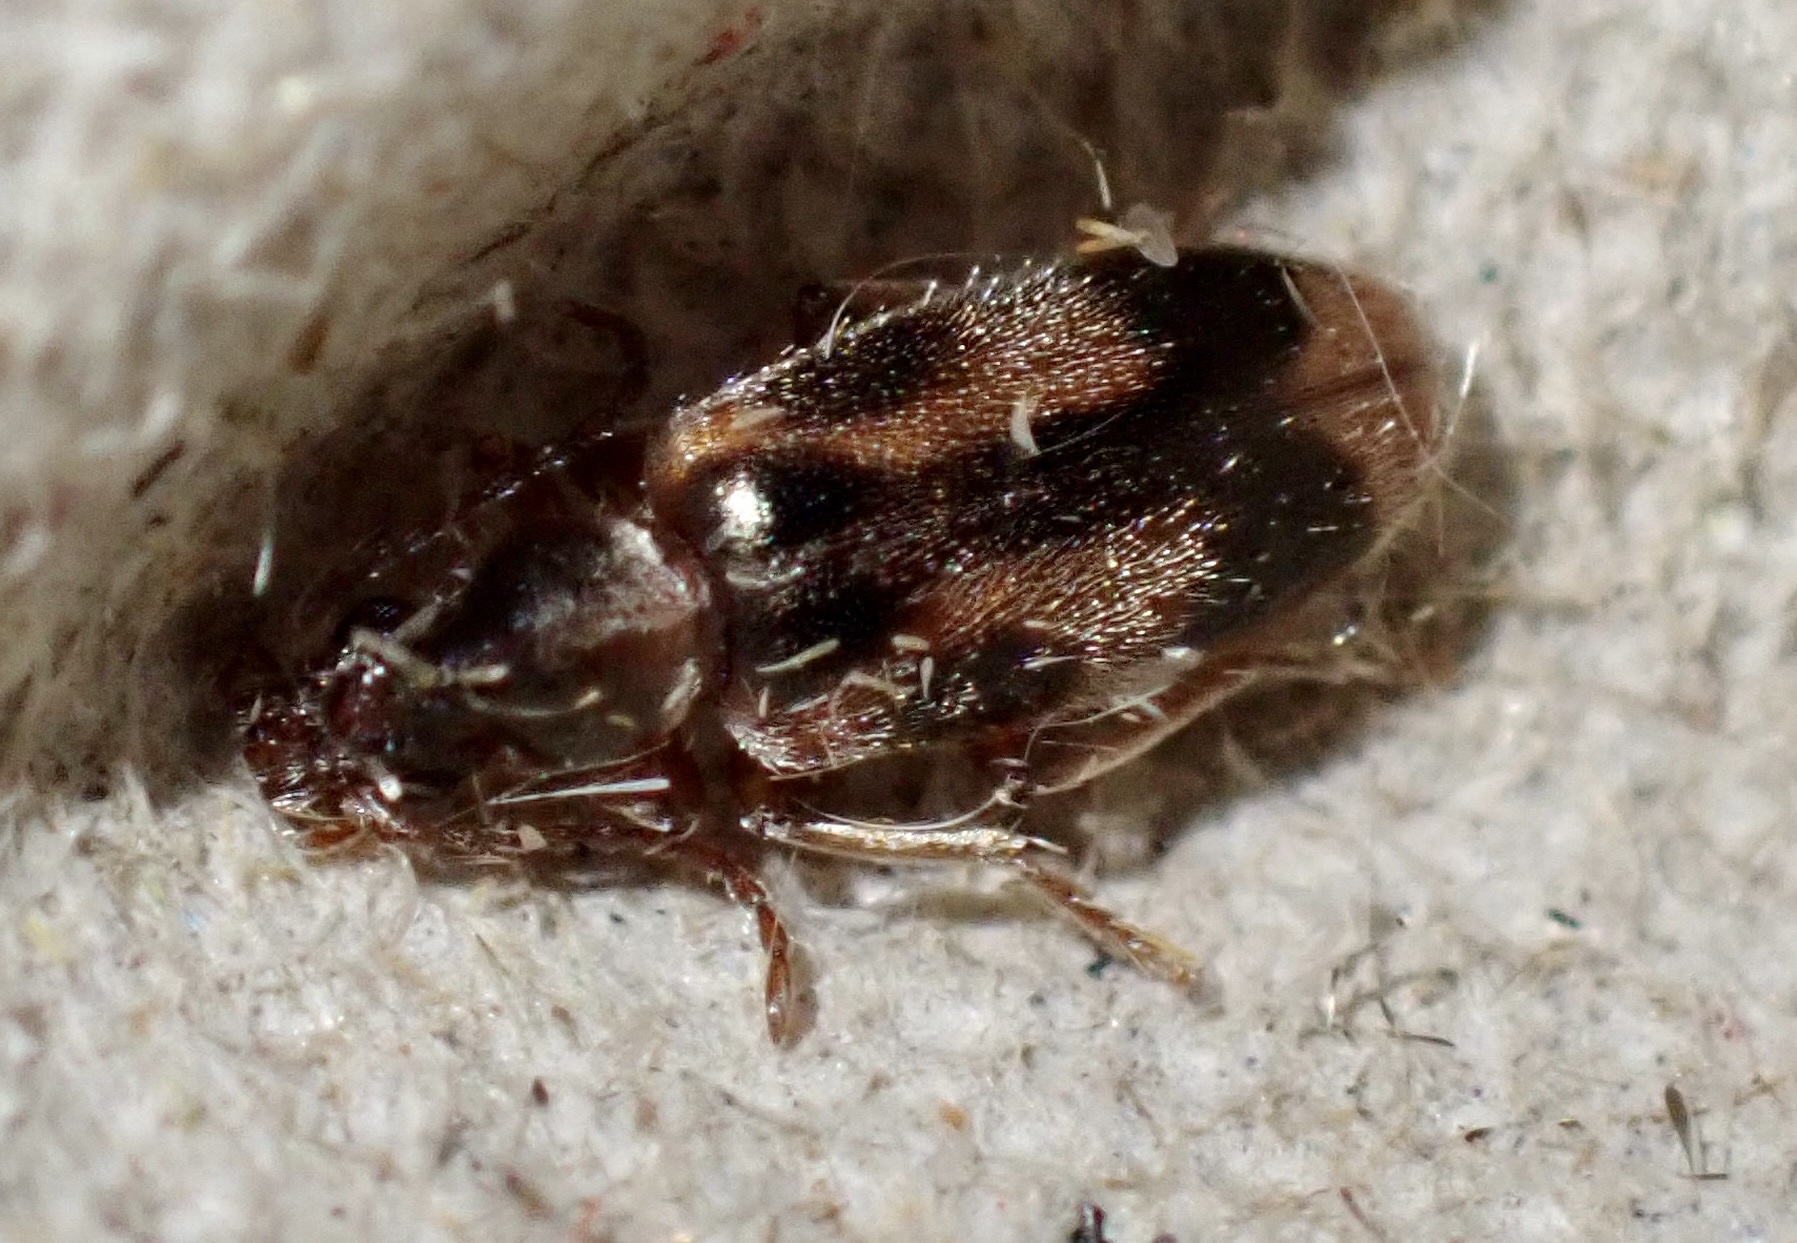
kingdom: Animalia
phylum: Arthropoda
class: Insecta
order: Coleoptera
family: Anthicidae
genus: Notoxus
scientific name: Notoxus monoceros
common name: Monoceros beetle
